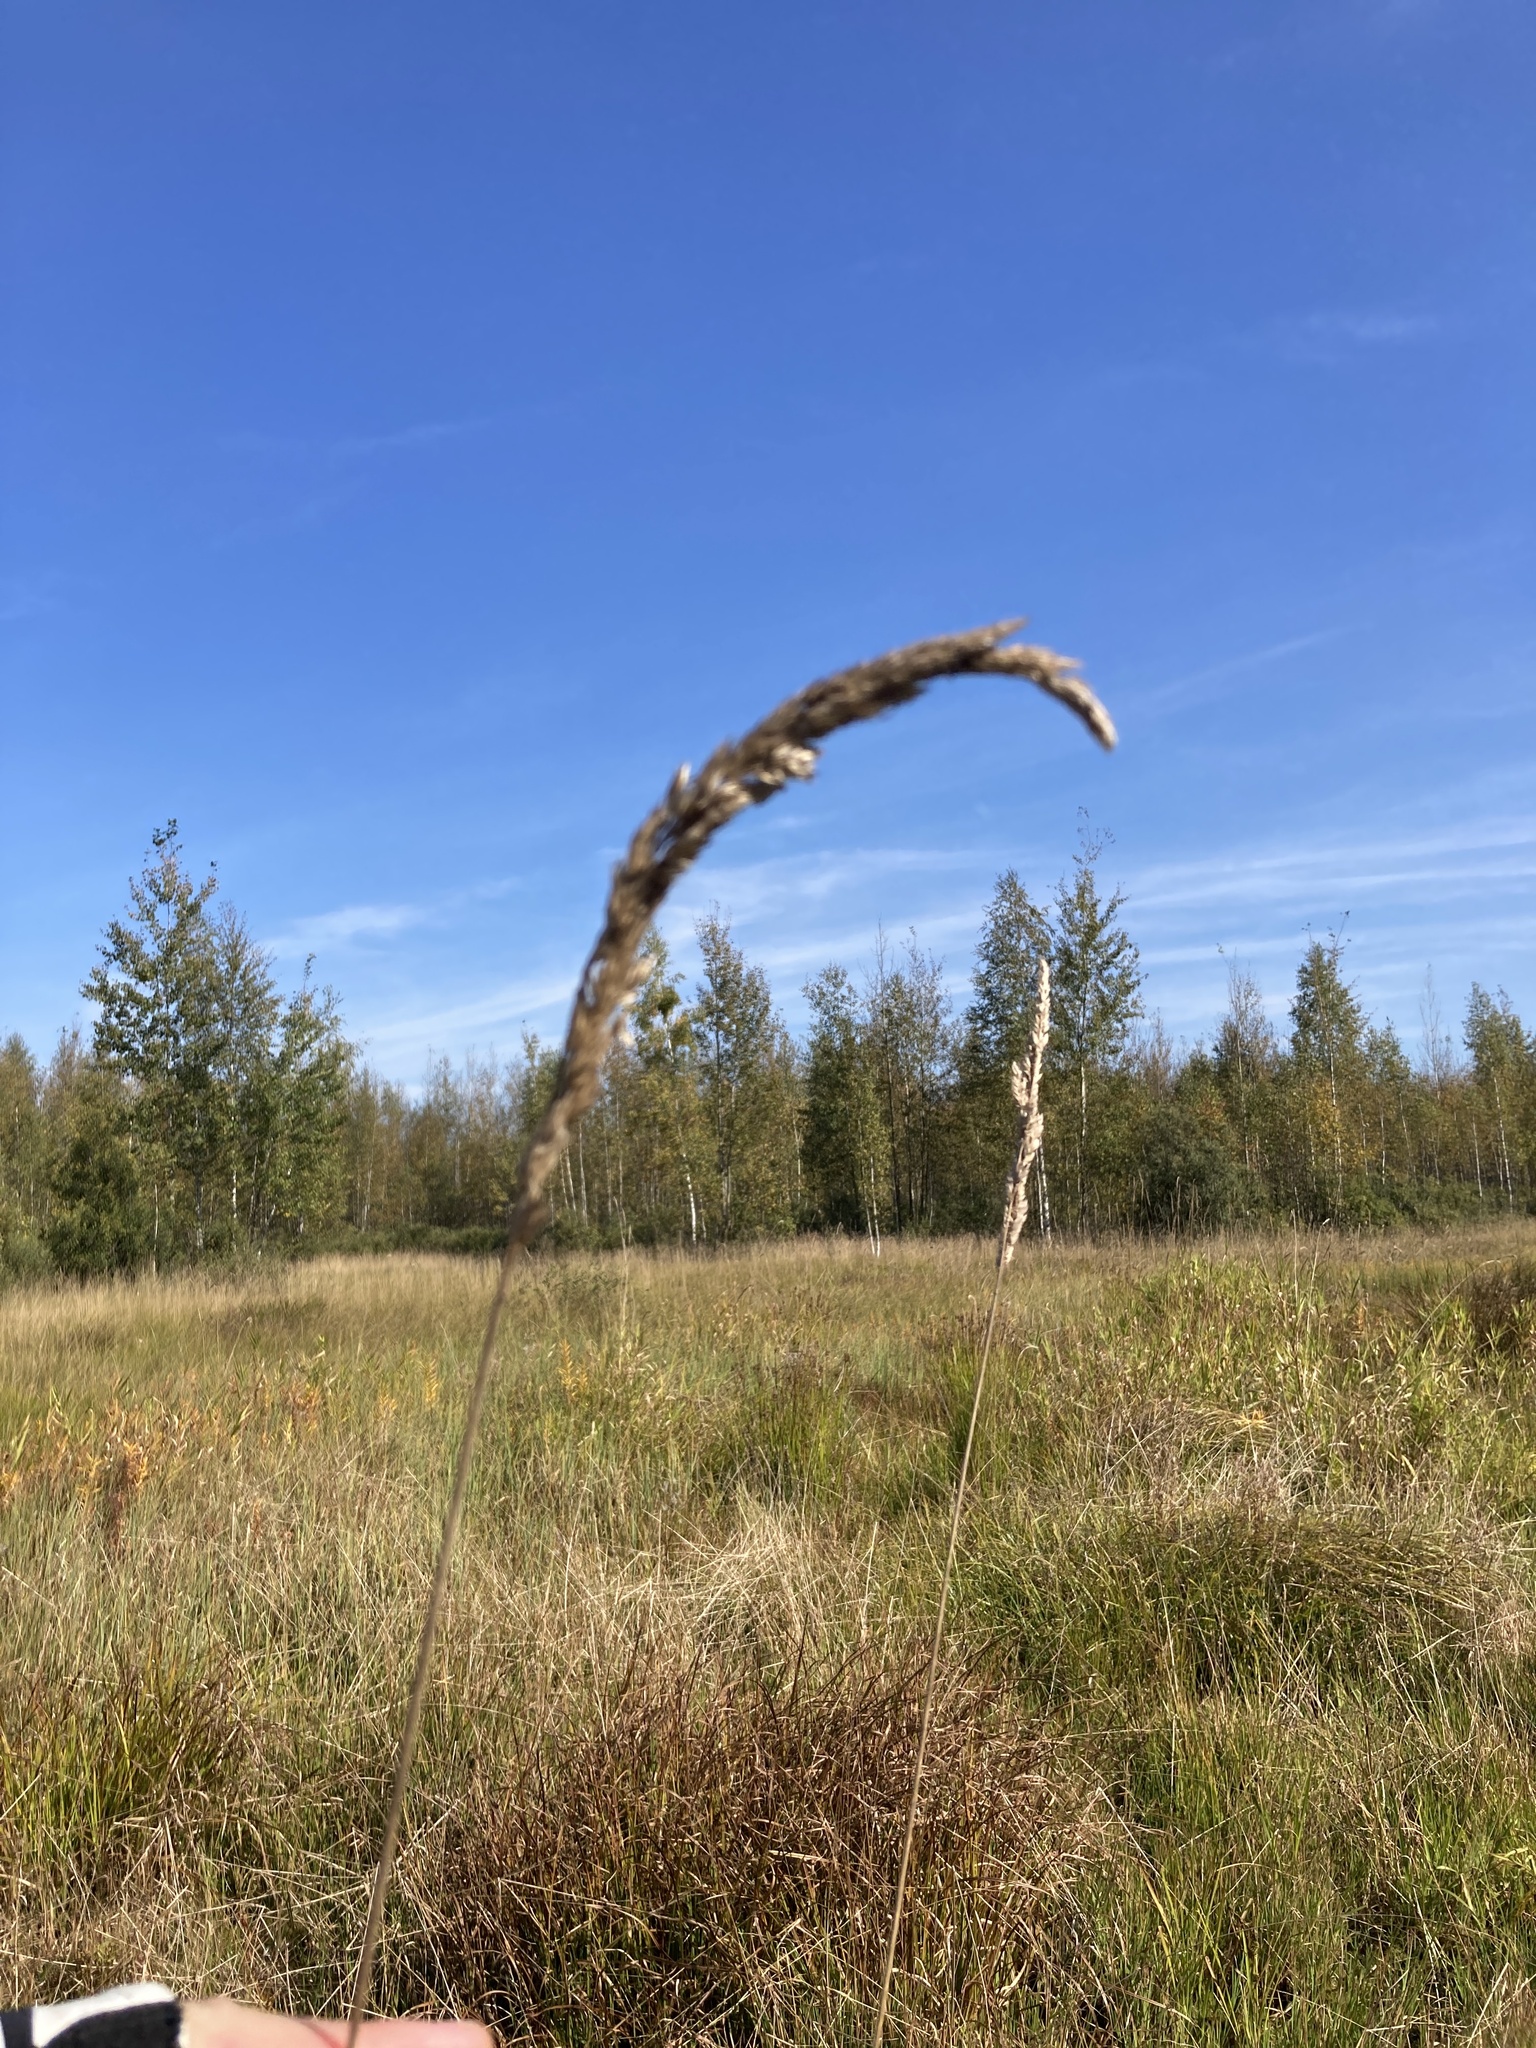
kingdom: Plantae
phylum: Tracheophyta
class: Liliopsida
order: Poales
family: Poaceae
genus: Phalaris
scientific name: Phalaris arundinacea
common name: Reed canary-grass
